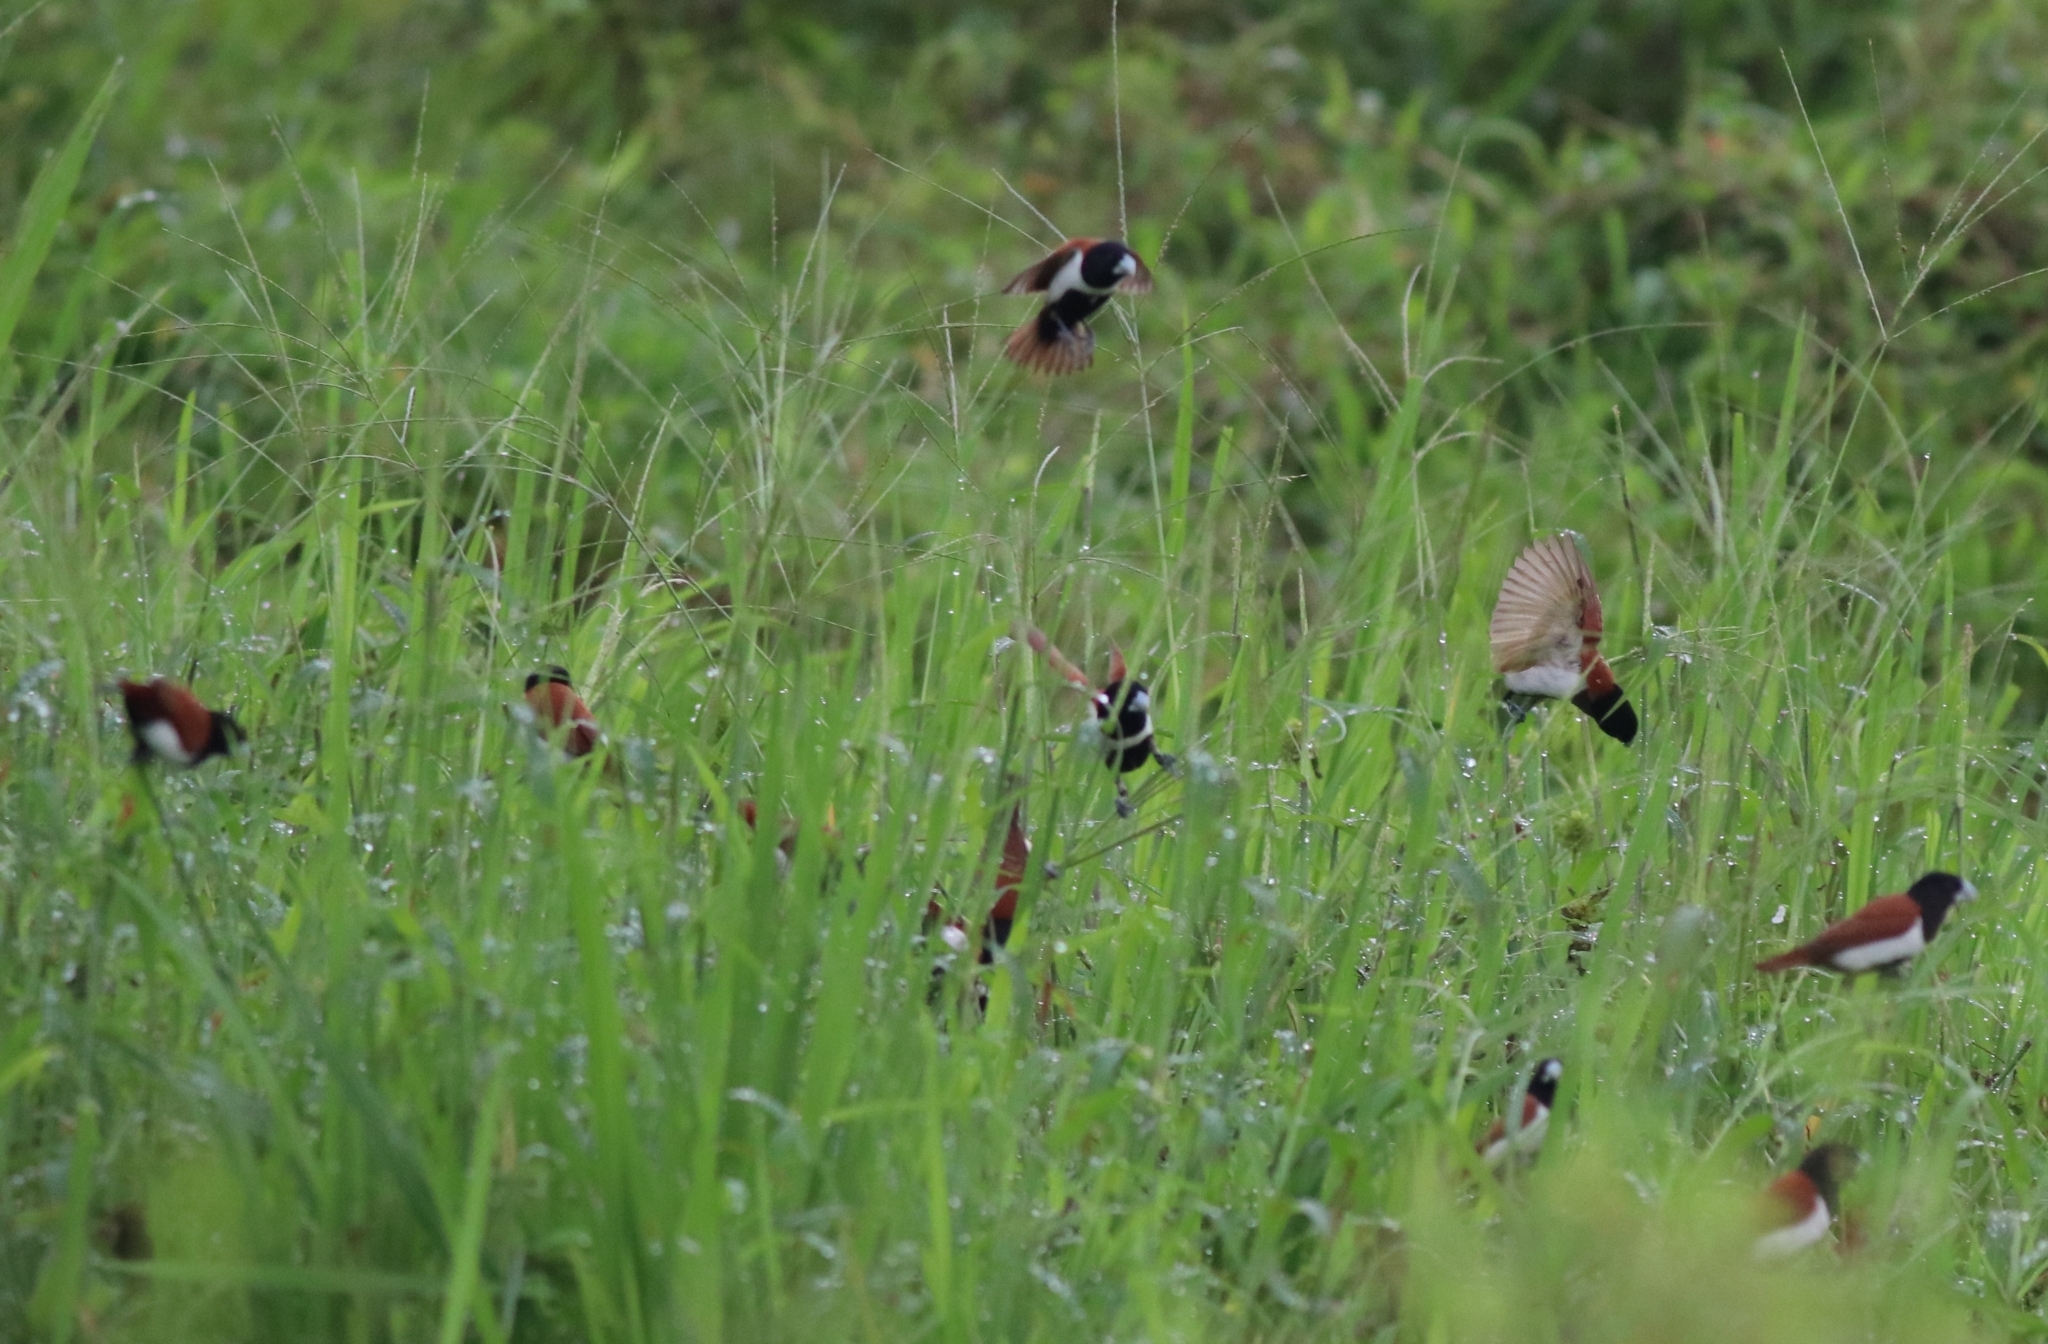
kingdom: Animalia
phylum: Chordata
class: Aves
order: Passeriformes
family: Estrildidae
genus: Lonchura
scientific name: Lonchura malacca
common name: Tricolored munia
